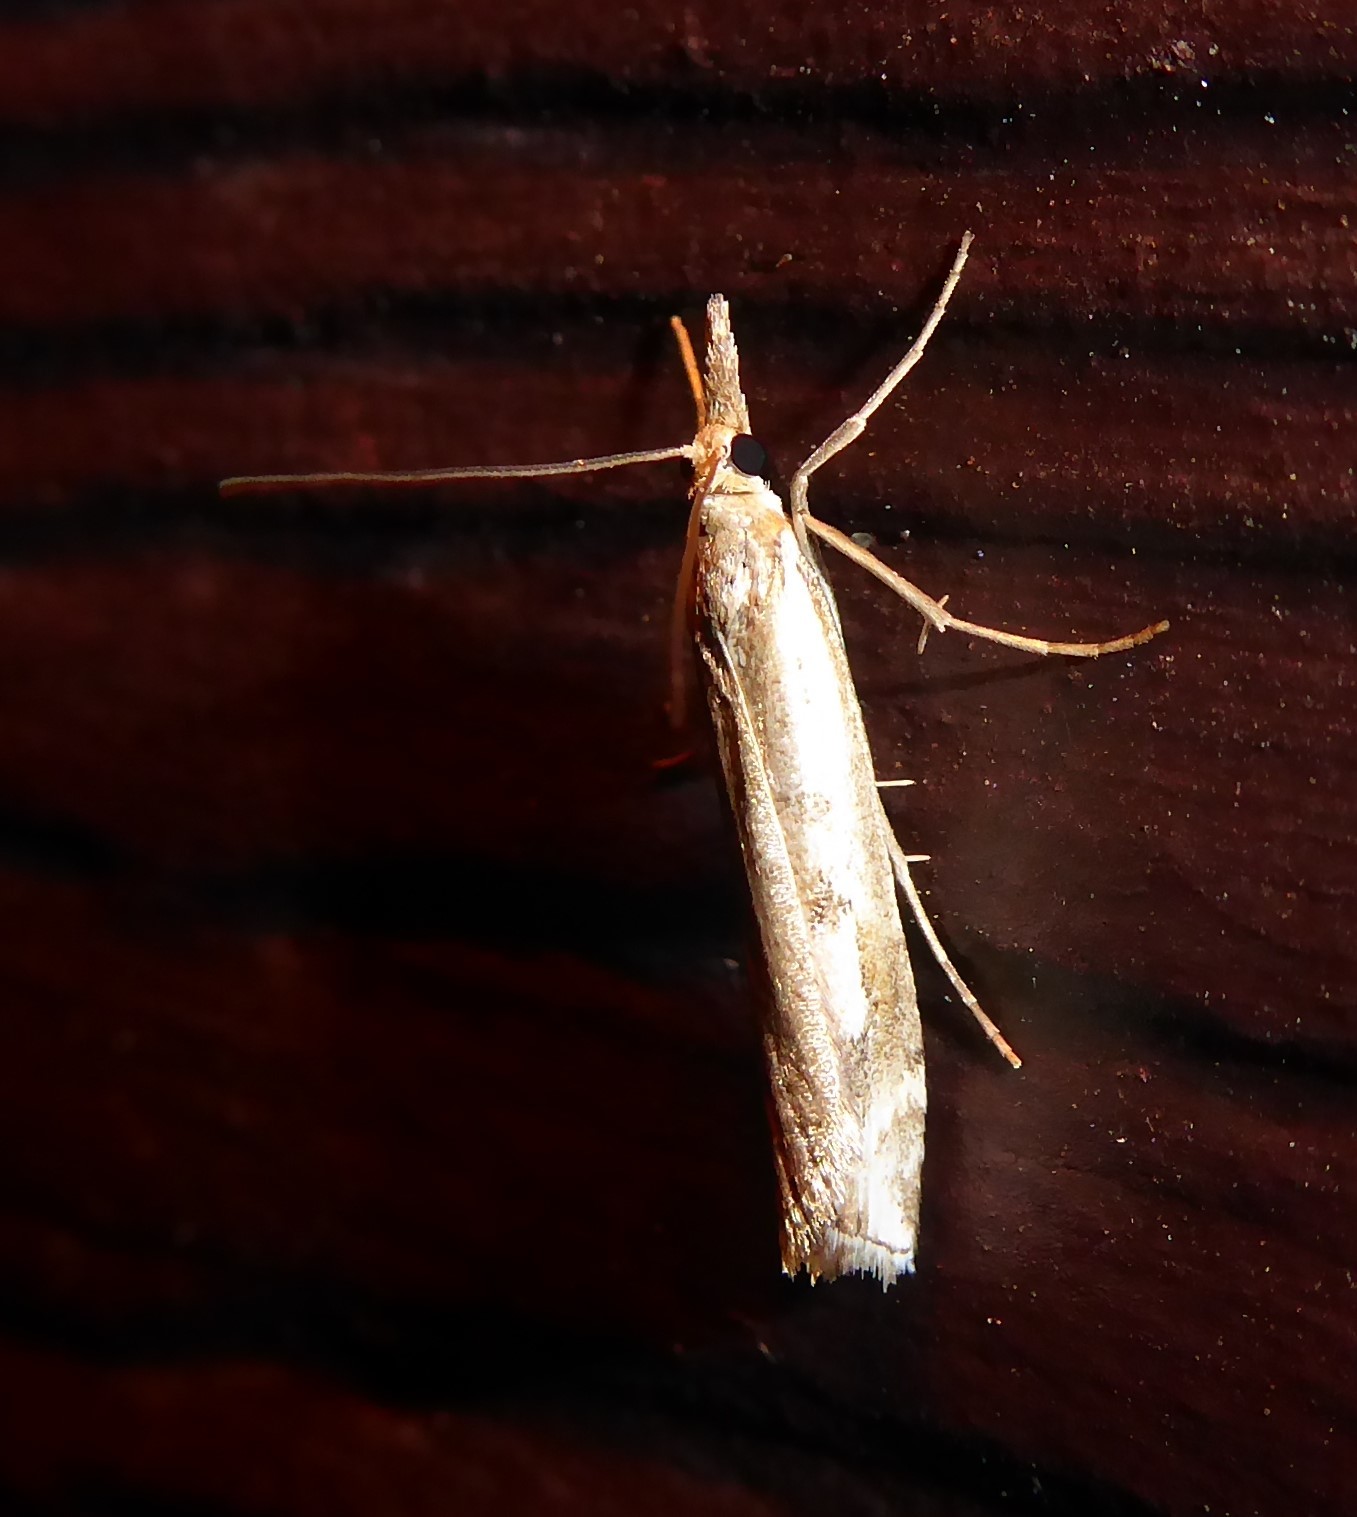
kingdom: Animalia
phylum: Arthropoda
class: Insecta
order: Lepidoptera
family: Crambidae
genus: Orocrambus
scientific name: Orocrambus vulgaris
